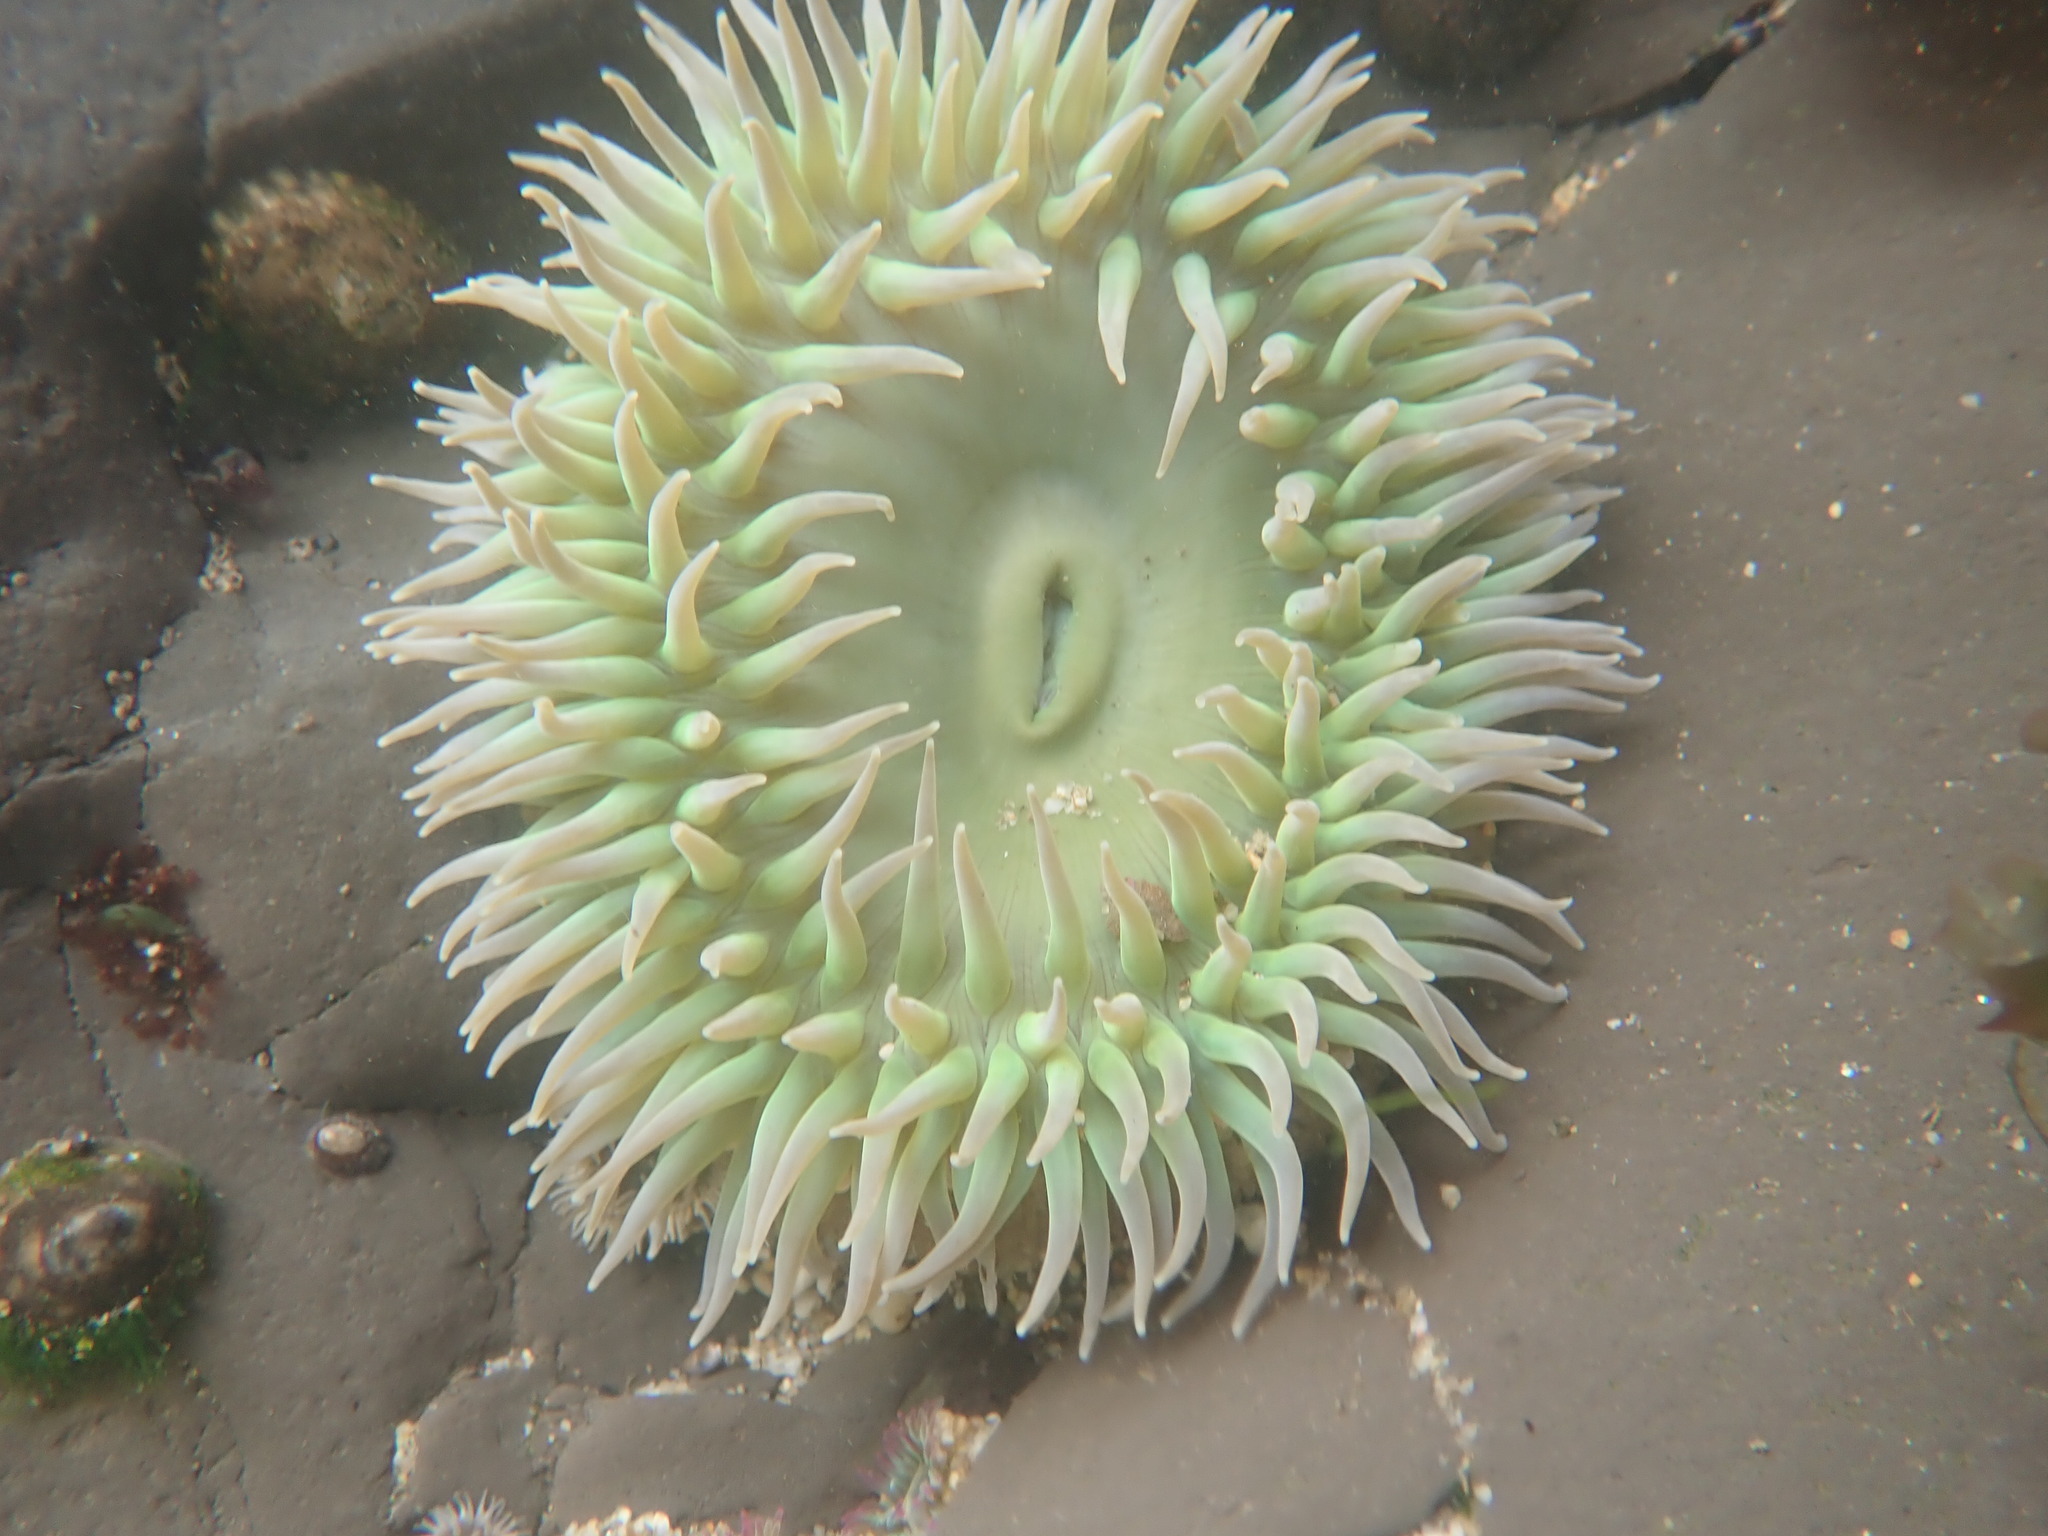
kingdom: Animalia
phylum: Cnidaria
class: Anthozoa
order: Actiniaria
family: Actiniidae
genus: Anthopleura
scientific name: Anthopleura xanthogrammica
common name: Giant green anemone
